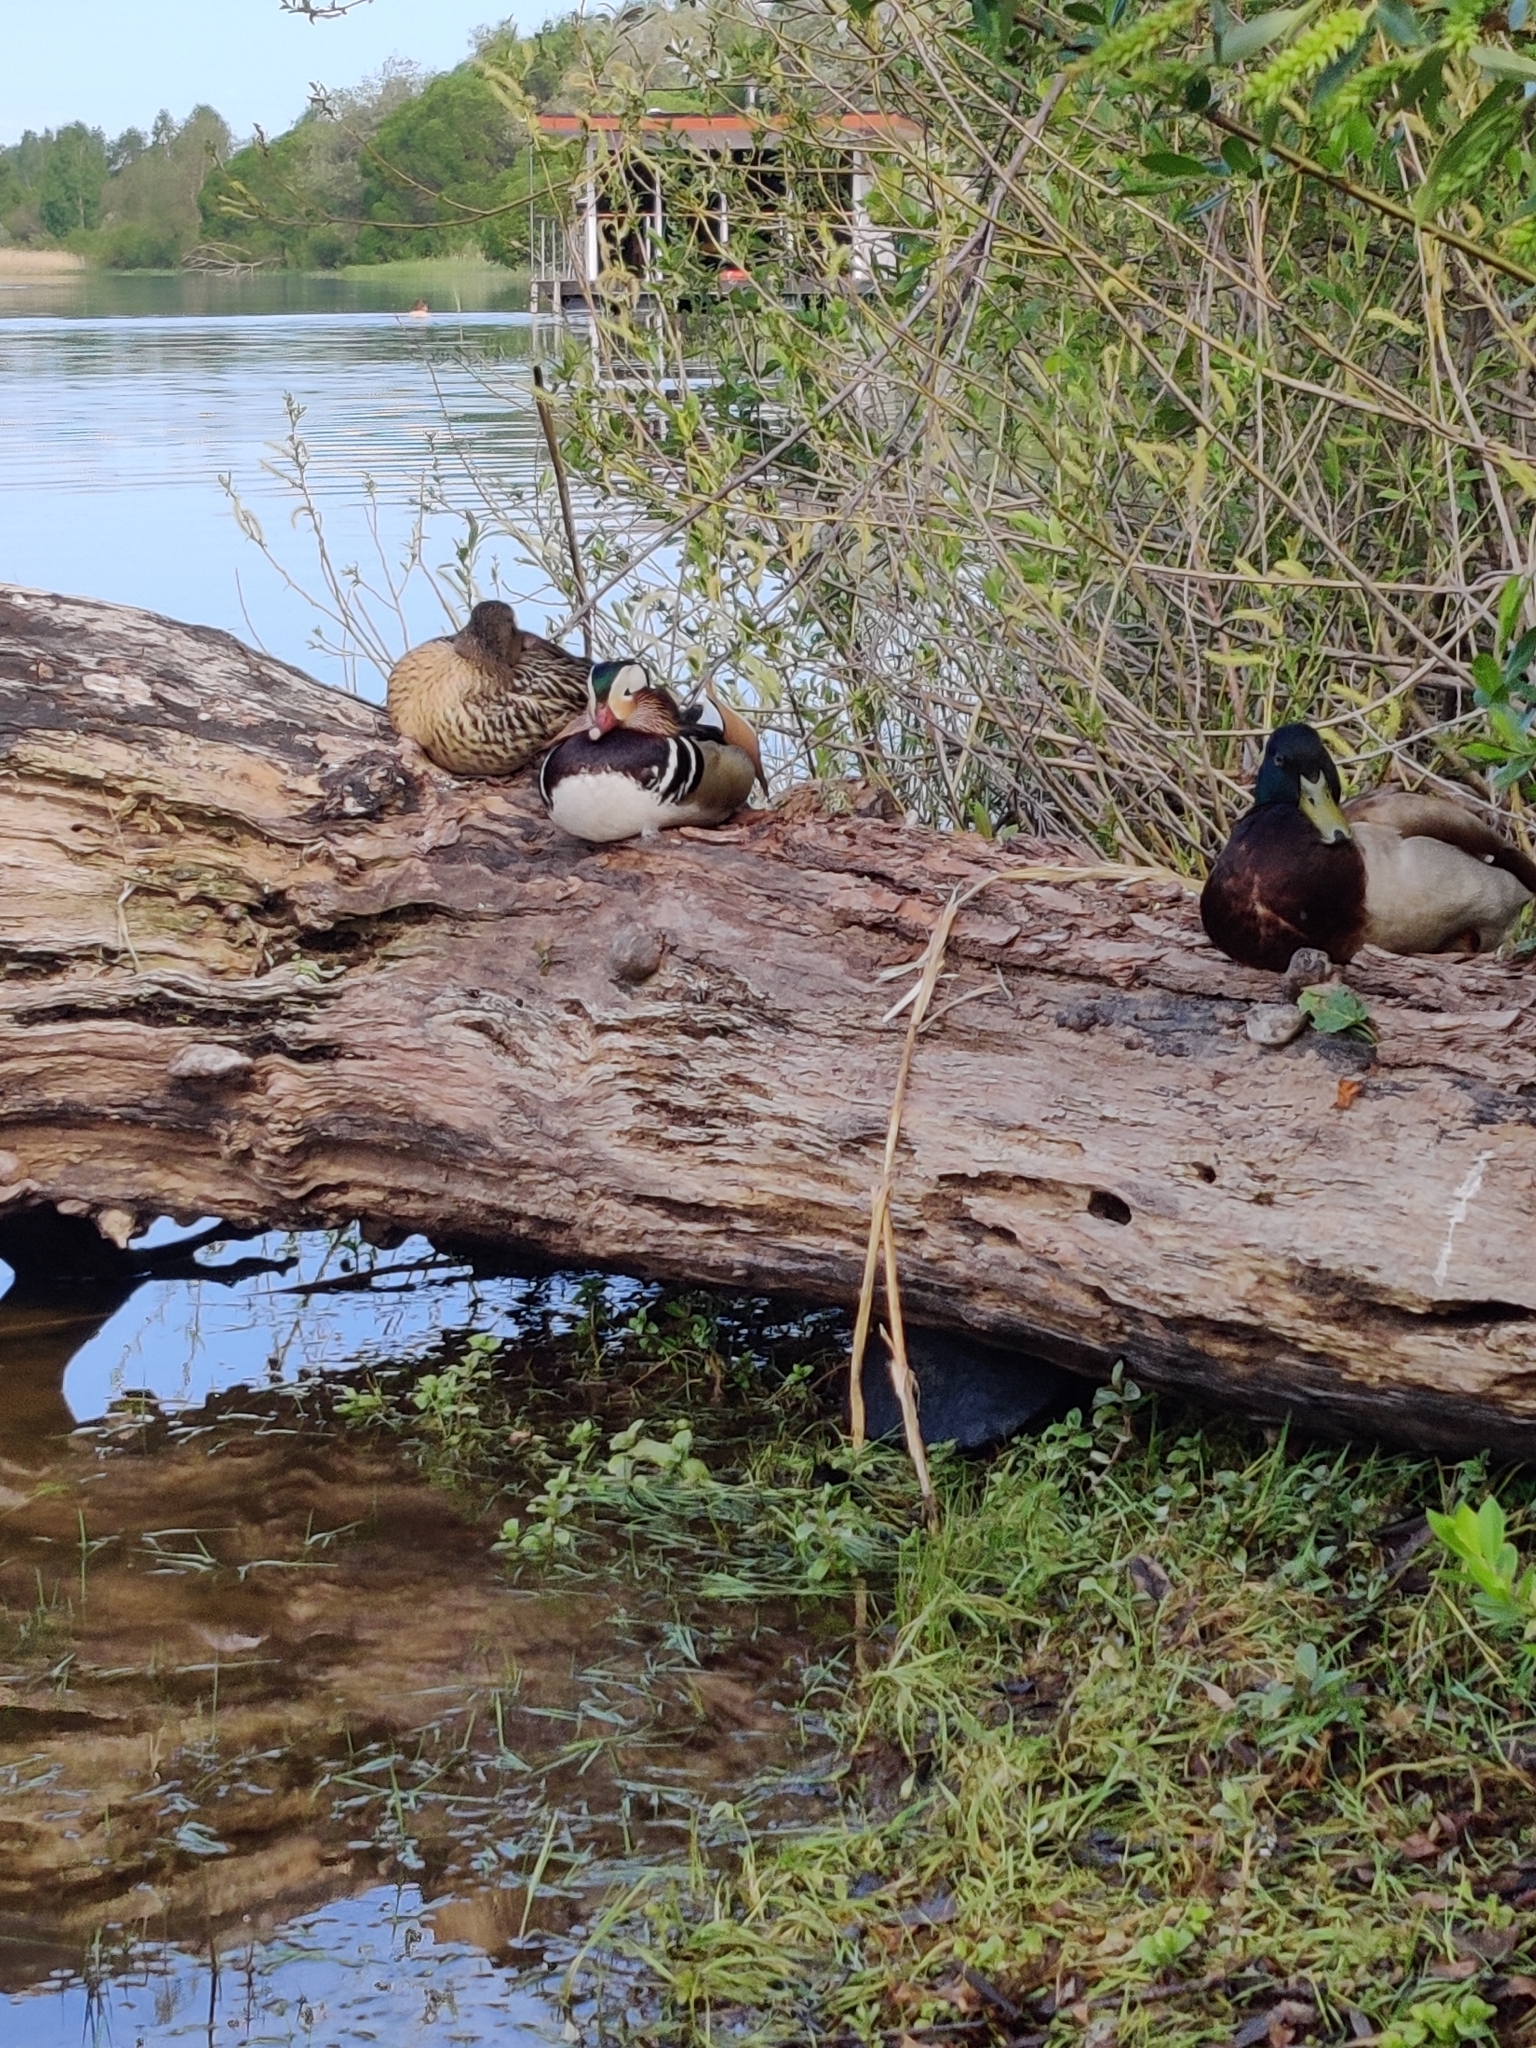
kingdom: Animalia
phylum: Chordata
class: Aves
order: Anseriformes
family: Anatidae
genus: Aix
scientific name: Aix galericulata
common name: Mandarin duck
